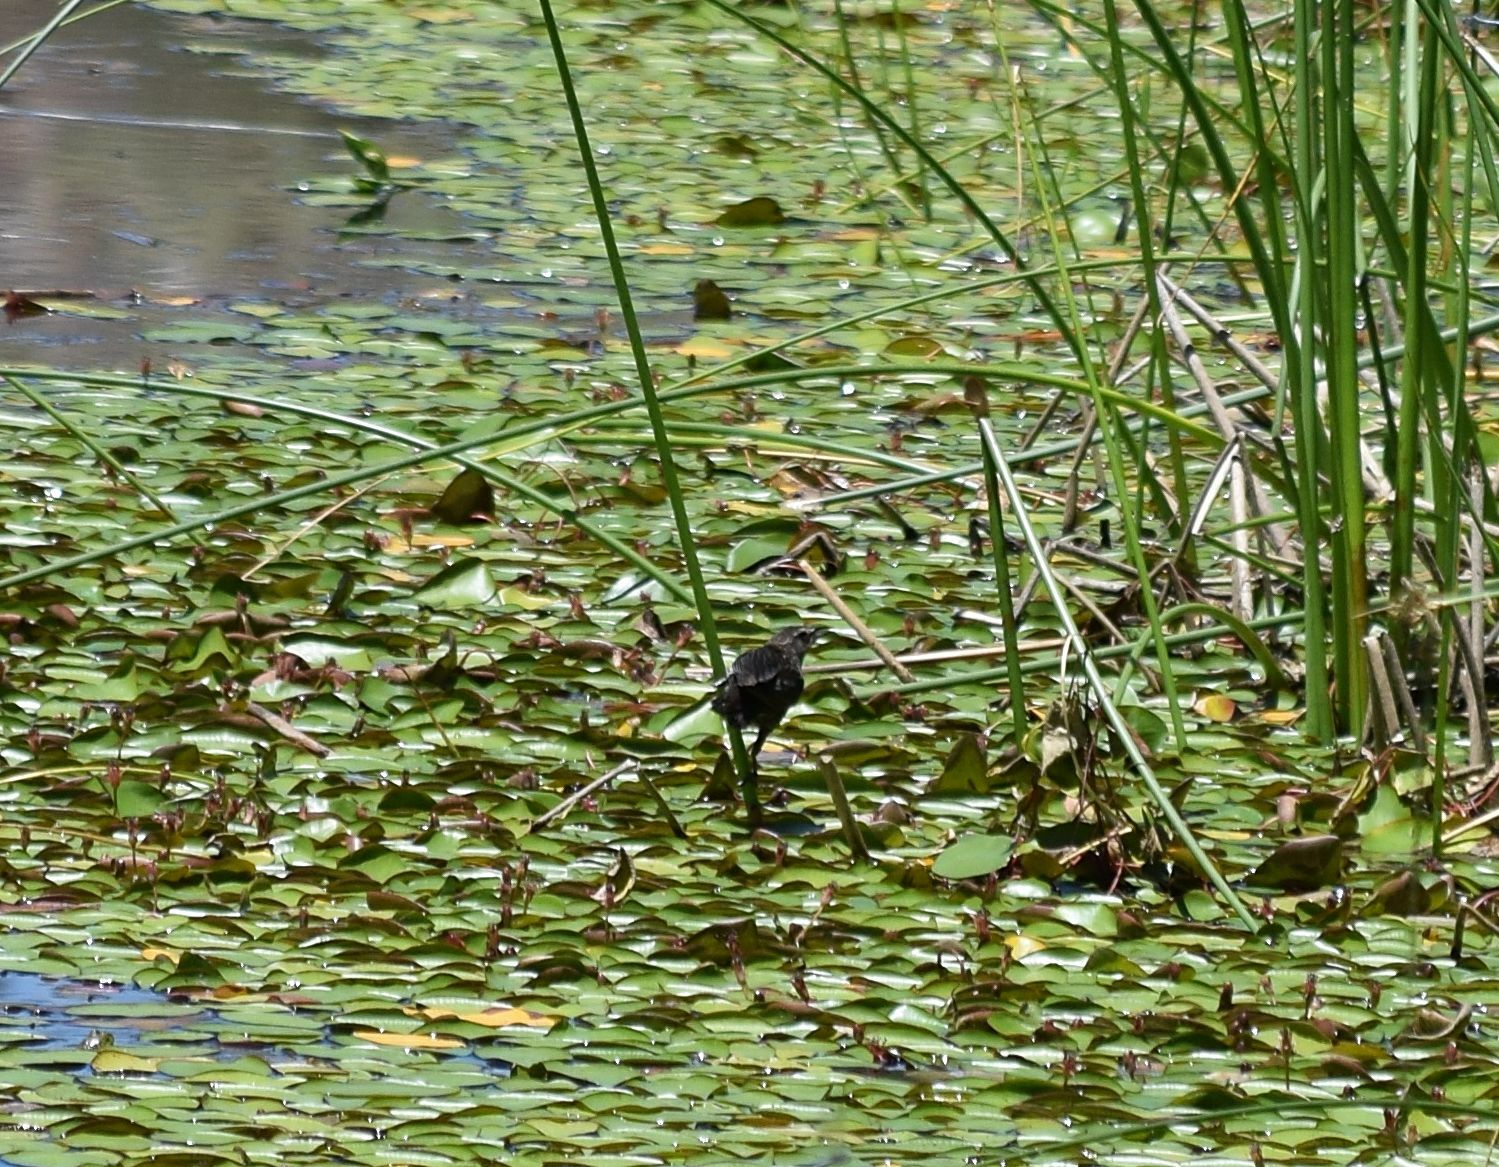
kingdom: Animalia
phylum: Chordata
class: Aves
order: Passeriformes
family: Icteridae
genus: Agelaius
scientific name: Agelaius phoeniceus
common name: Red-winged blackbird
